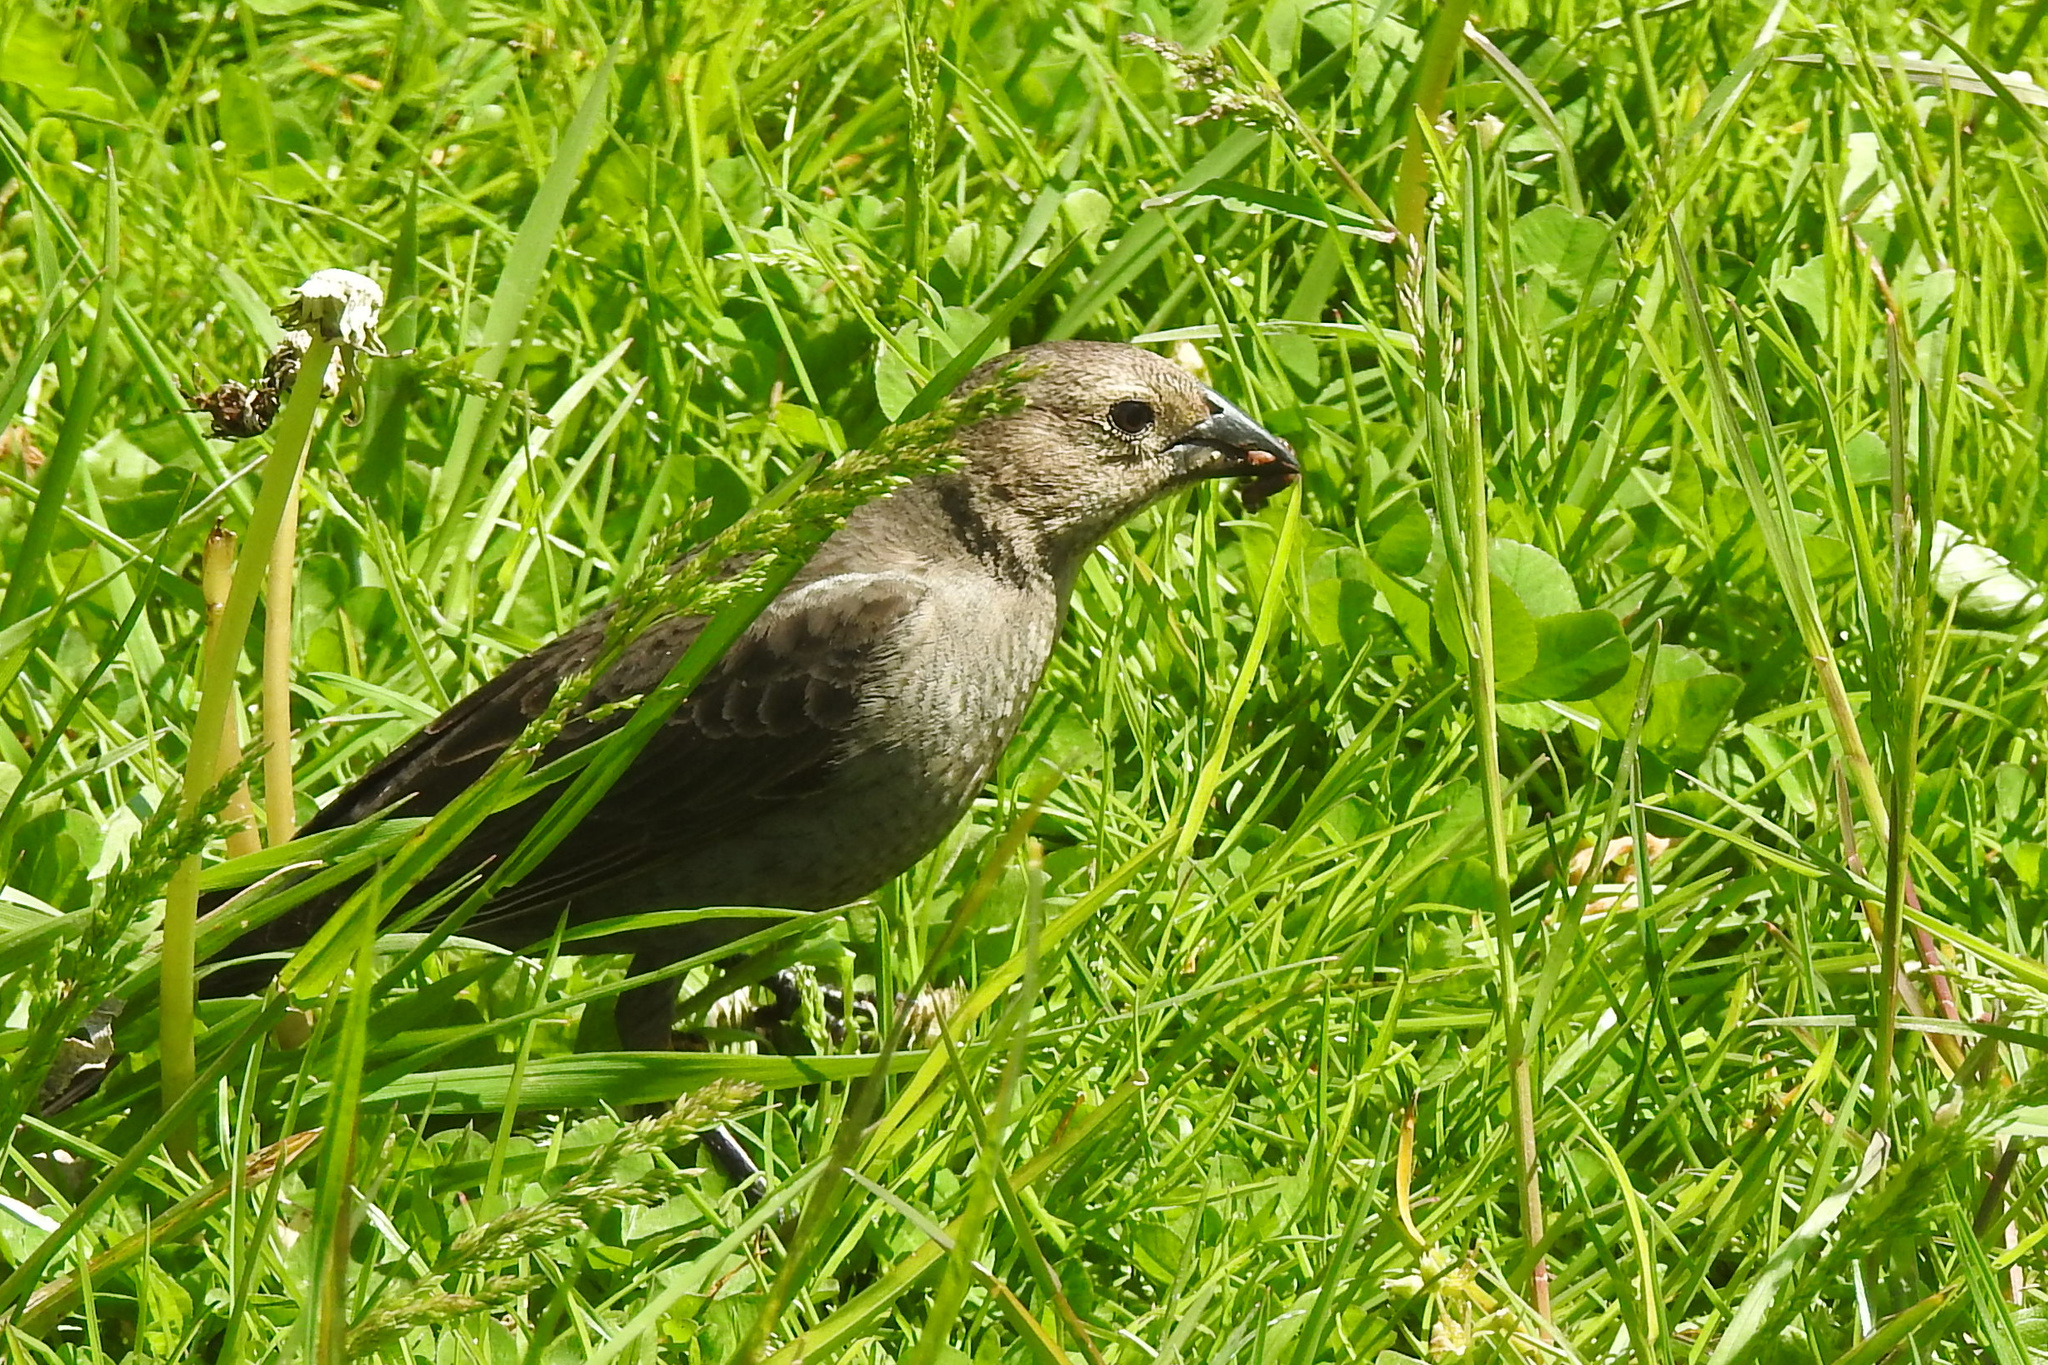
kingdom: Animalia
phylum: Chordata
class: Aves
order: Passeriformes
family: Icteridae
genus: Molothrus
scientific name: Molothrus ater
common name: Brown-headed cowbird
